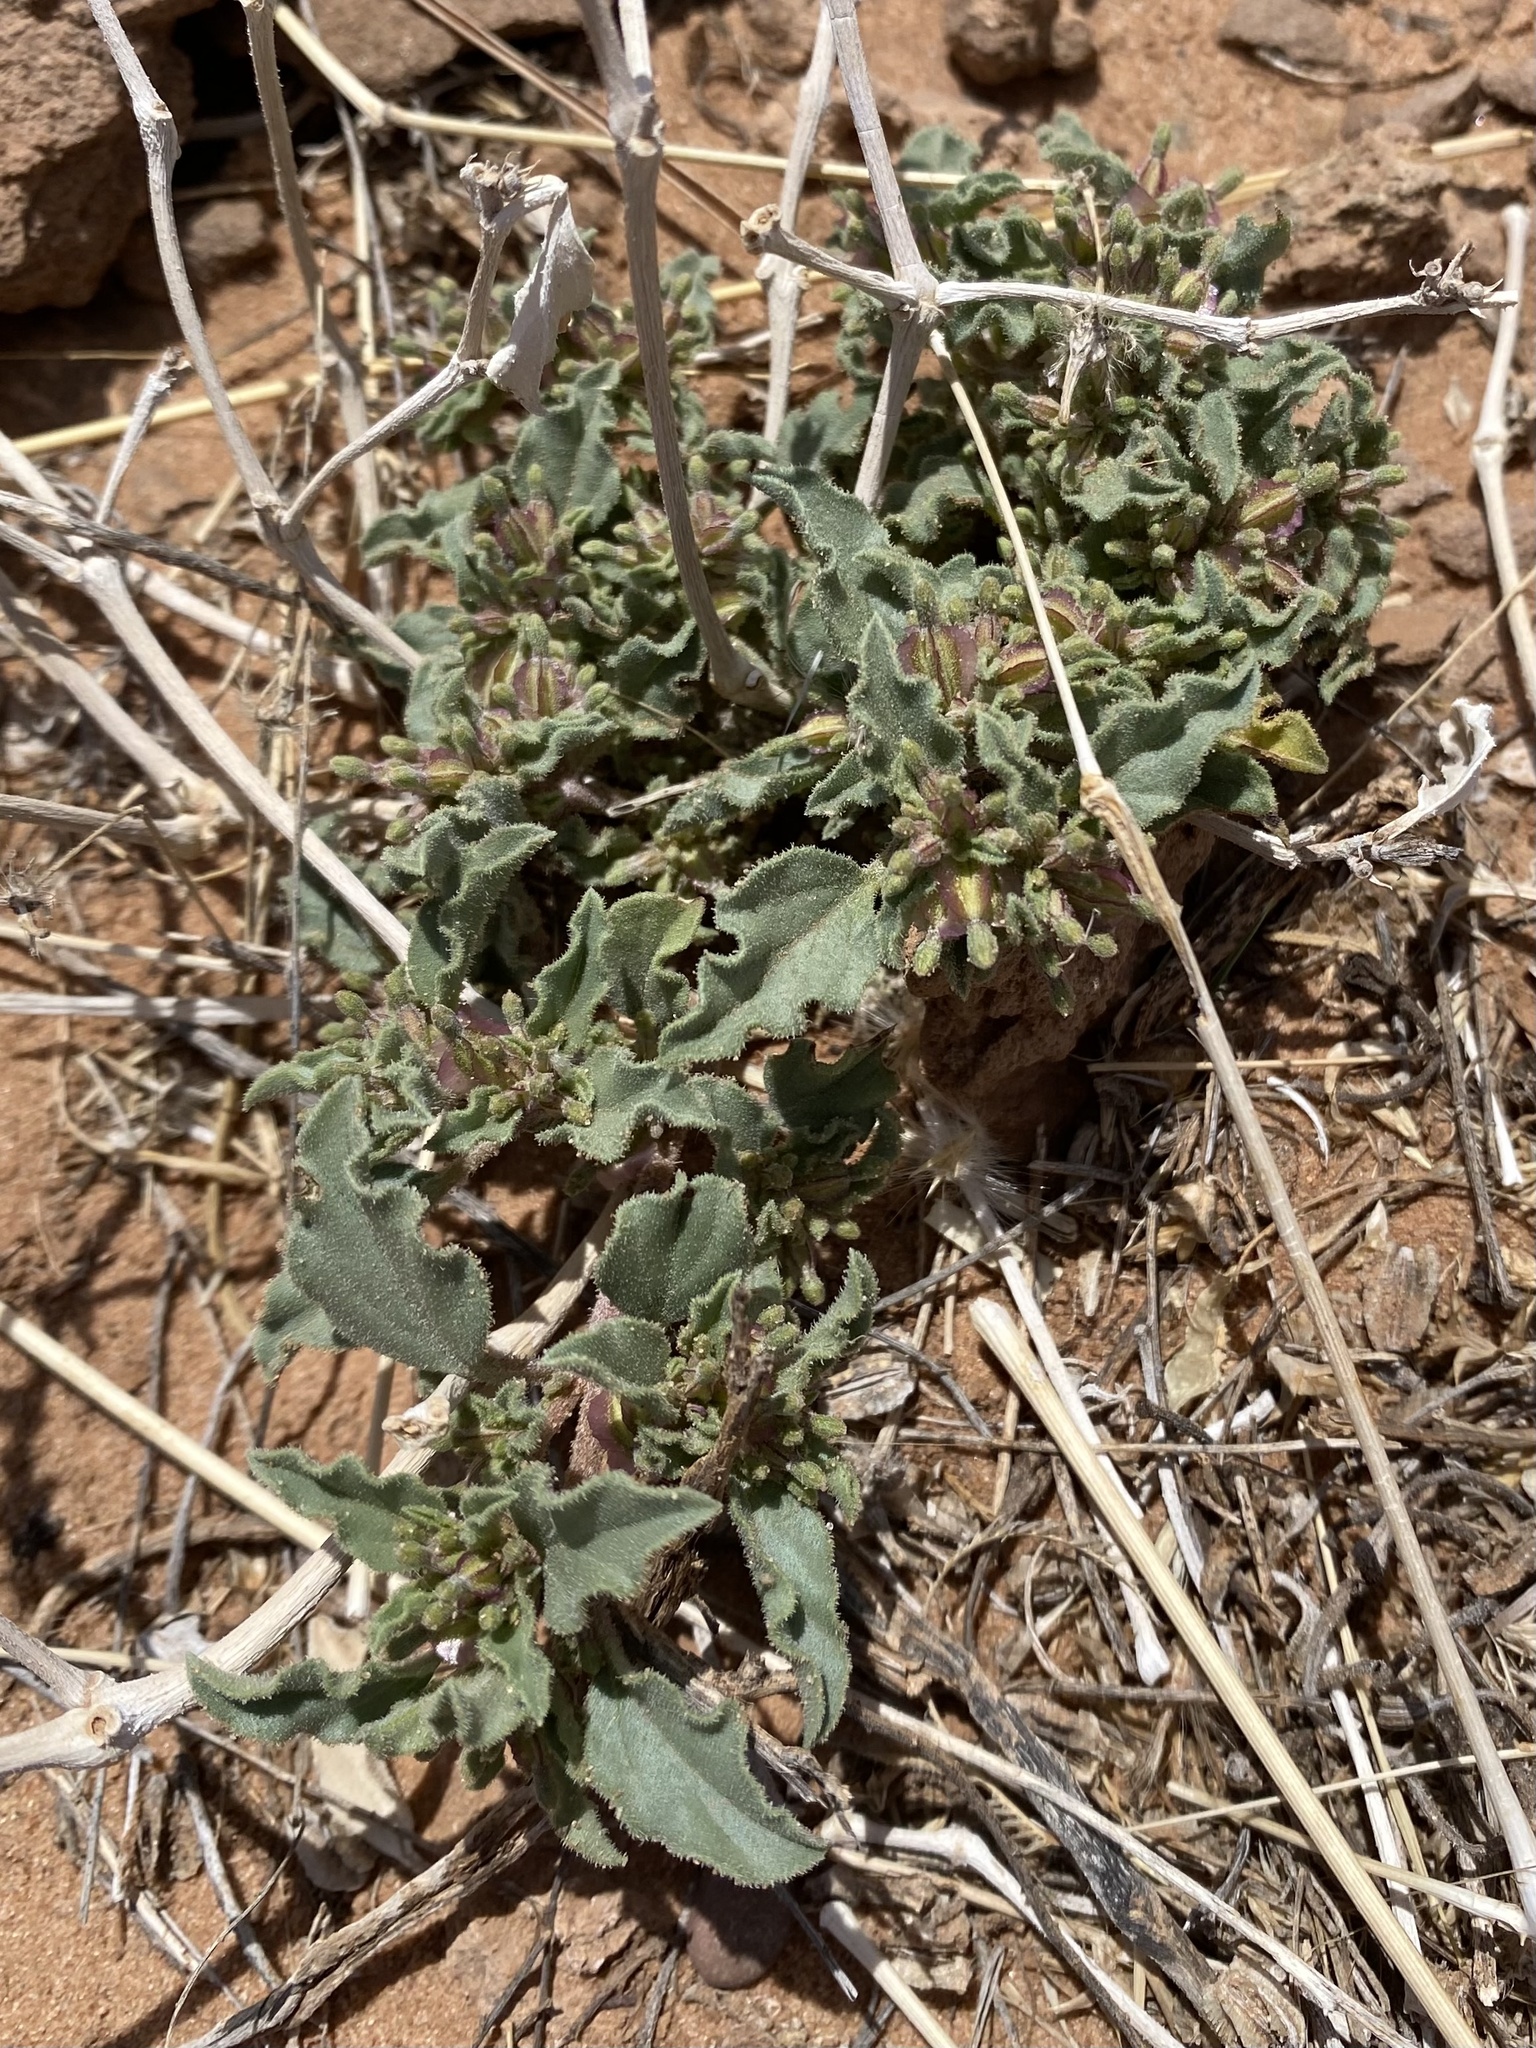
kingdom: Plantae
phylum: Tracheophyta
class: Magnoliopsida
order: Caryophyllales
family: Nyctaginaceae
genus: Acleisanthes
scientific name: Acleisanthes diffusa
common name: Spreading moonpod
